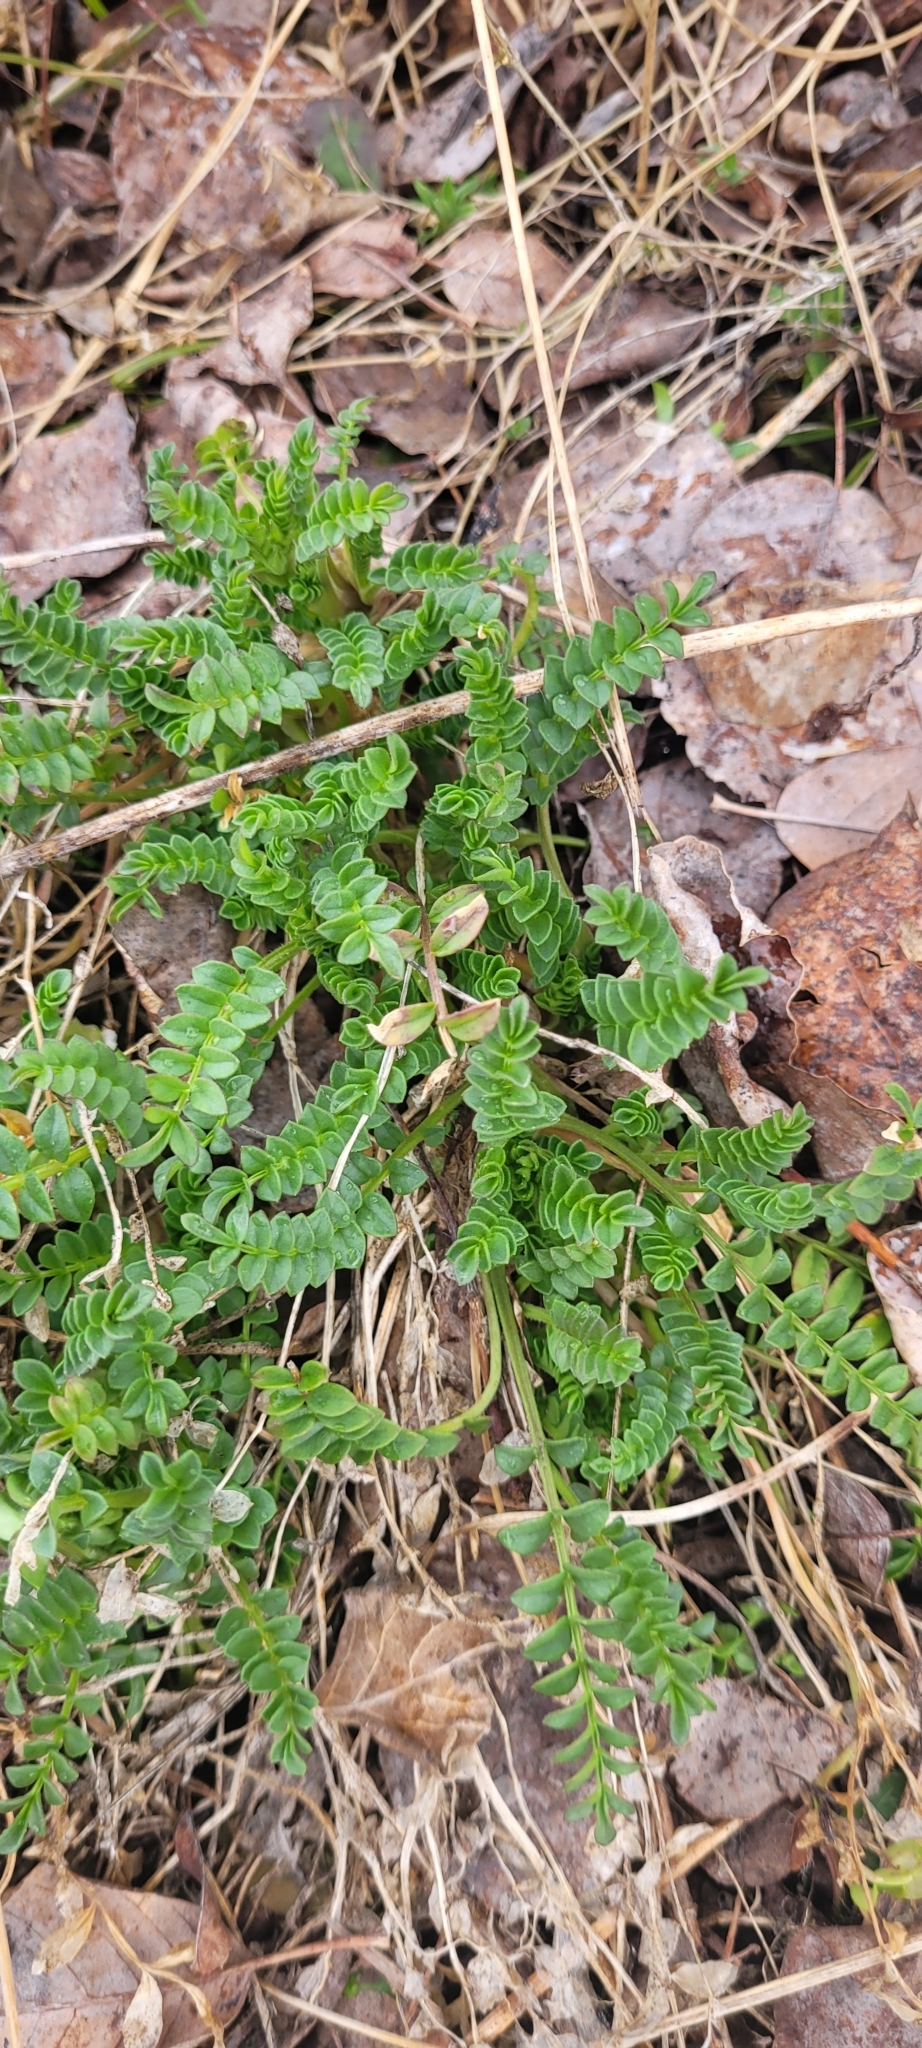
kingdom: Plantae
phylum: Tracheophyta
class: Magnoliopsida
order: Ericales
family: Polemoniaceae
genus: Polemonium
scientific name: Polemonium pulcherrimum
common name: Short jacob's-ladder
